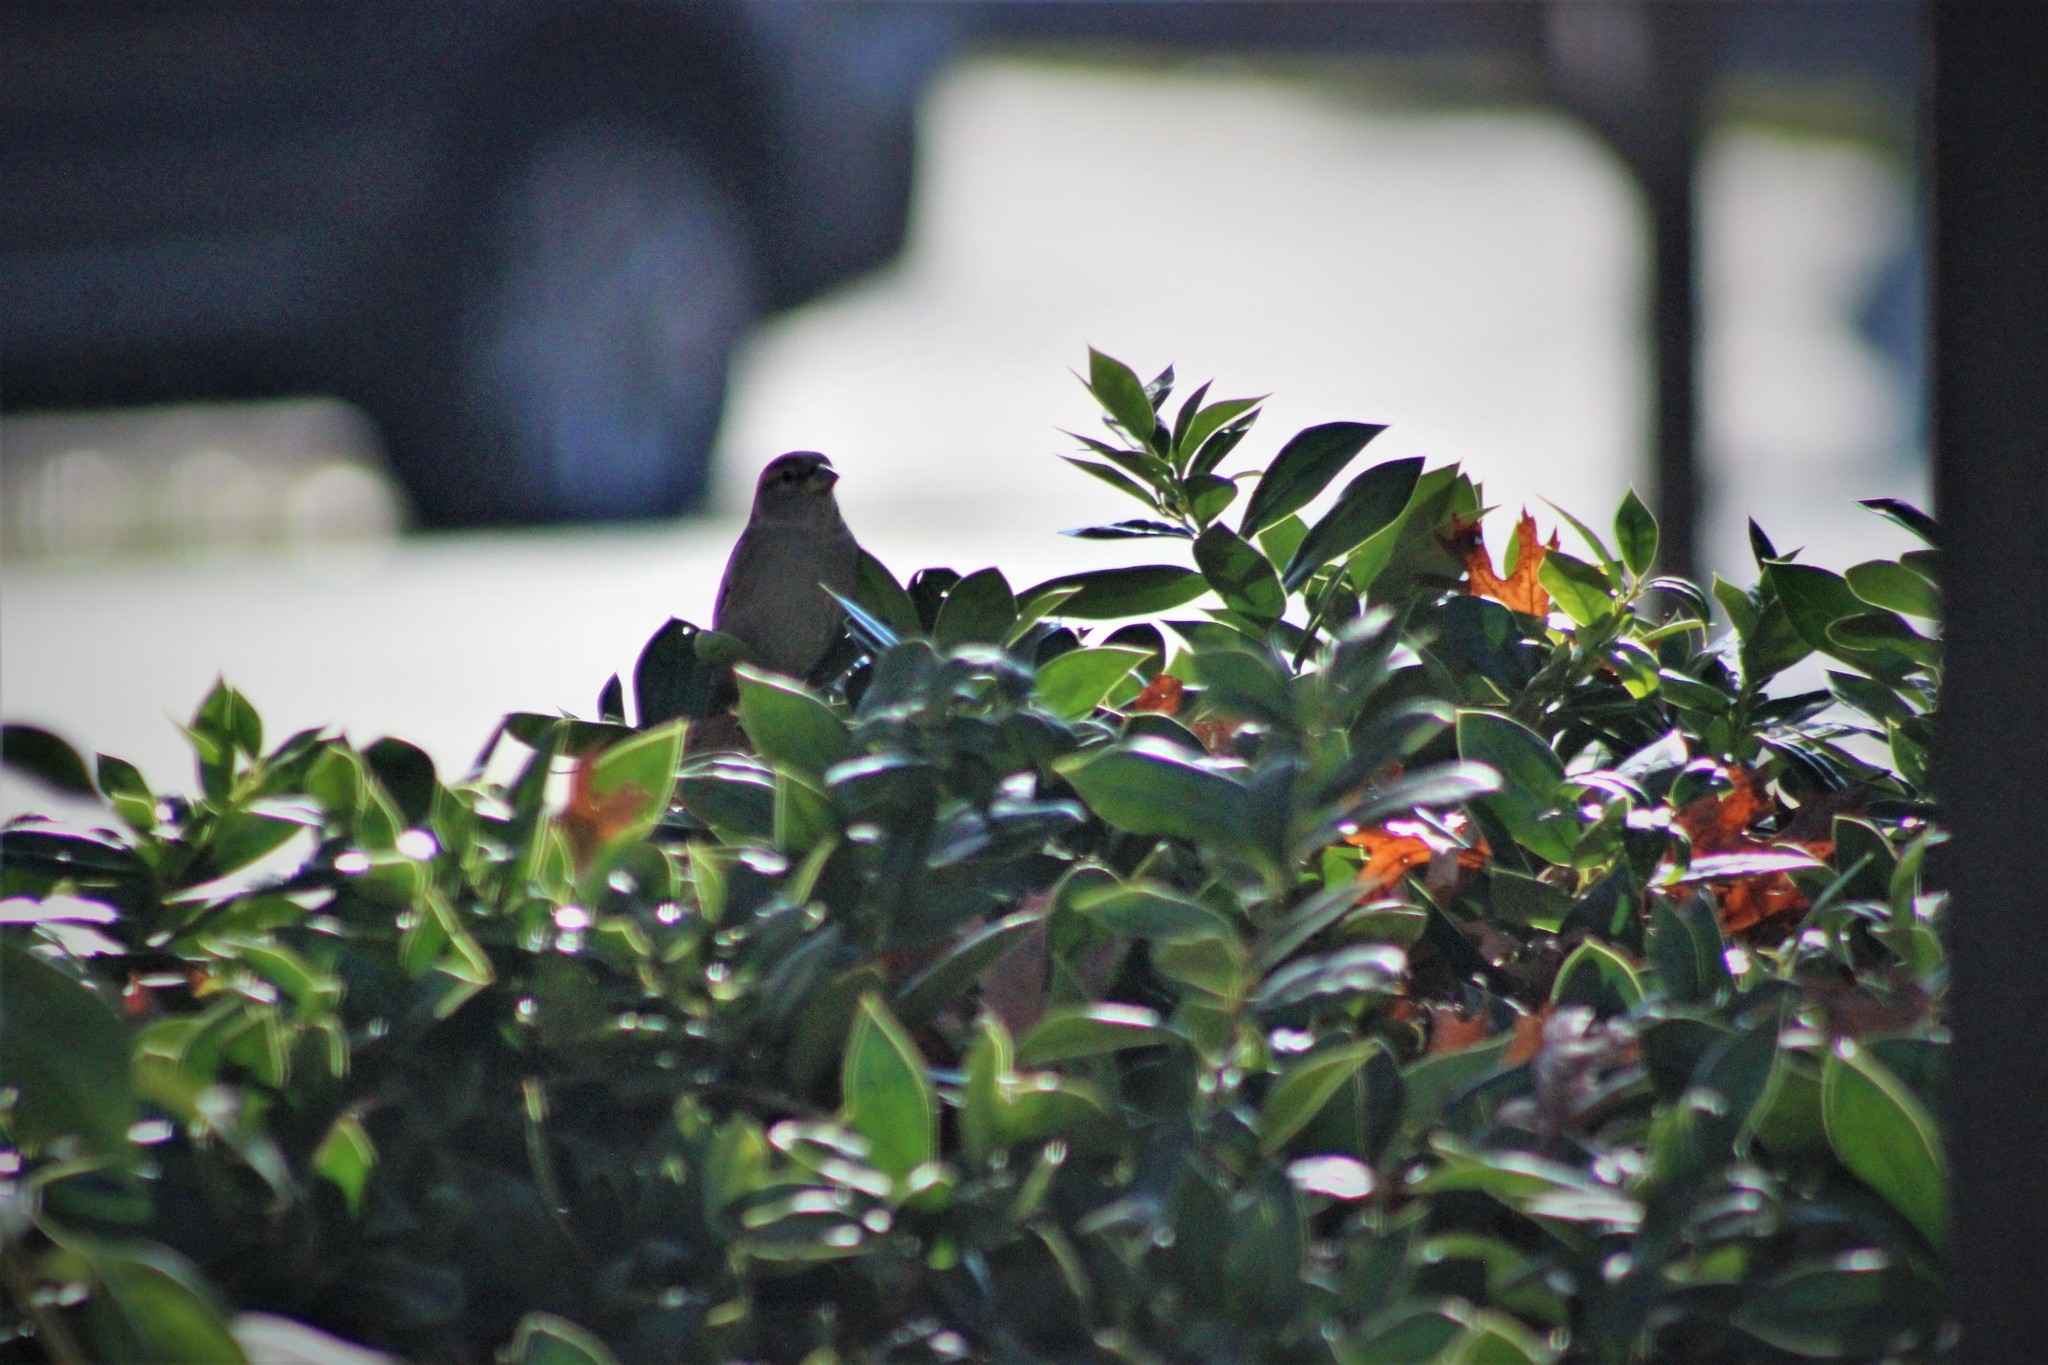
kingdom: Animalia
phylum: Chordata
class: Aves
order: Passeriformes
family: Passeridae
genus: Passer
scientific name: Passer domesticus
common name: House sparrow
